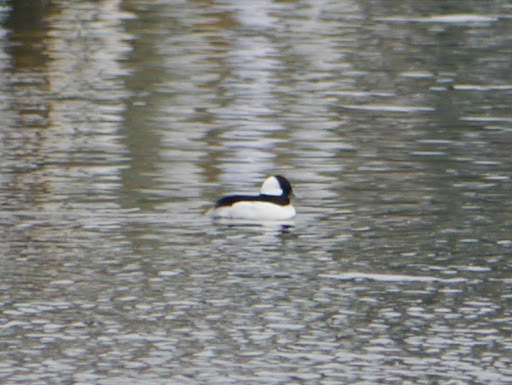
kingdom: Animalia
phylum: Chordata
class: Aves
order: Anseriformes
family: Anatidae
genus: Bucephala
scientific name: Bucephala albeola
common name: Bufflehead
